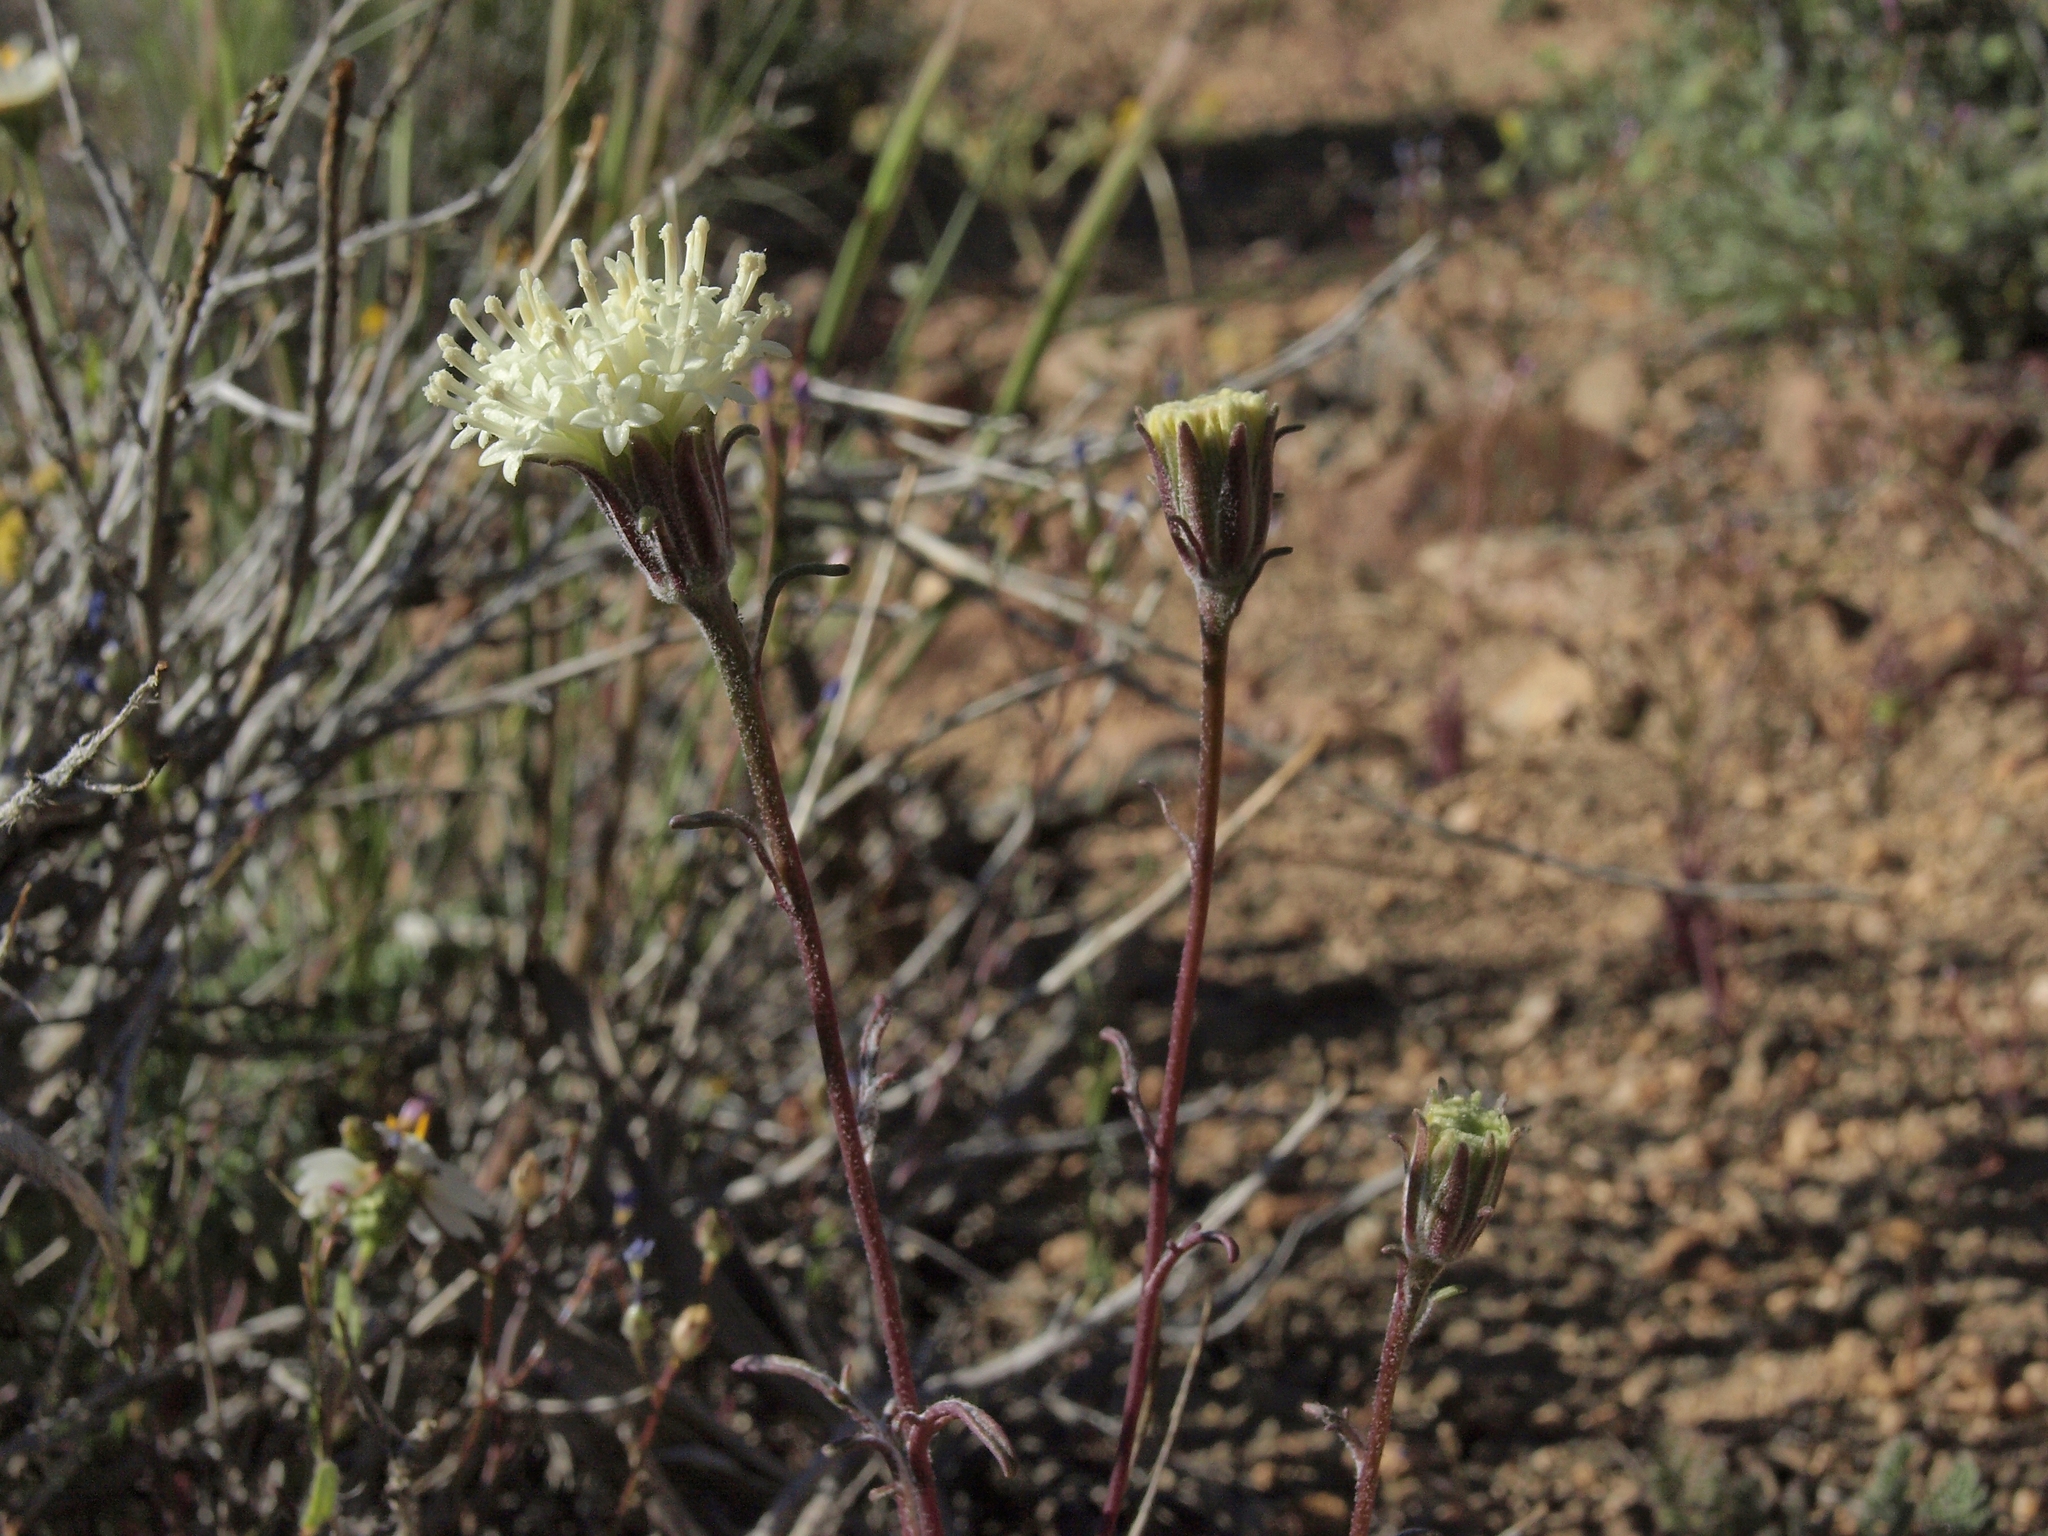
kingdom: Plantae
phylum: Tracheophyta
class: Magnoliopsida
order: Asterales
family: Asteraceae
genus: Chaenactis
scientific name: Chaenactis xantiana
